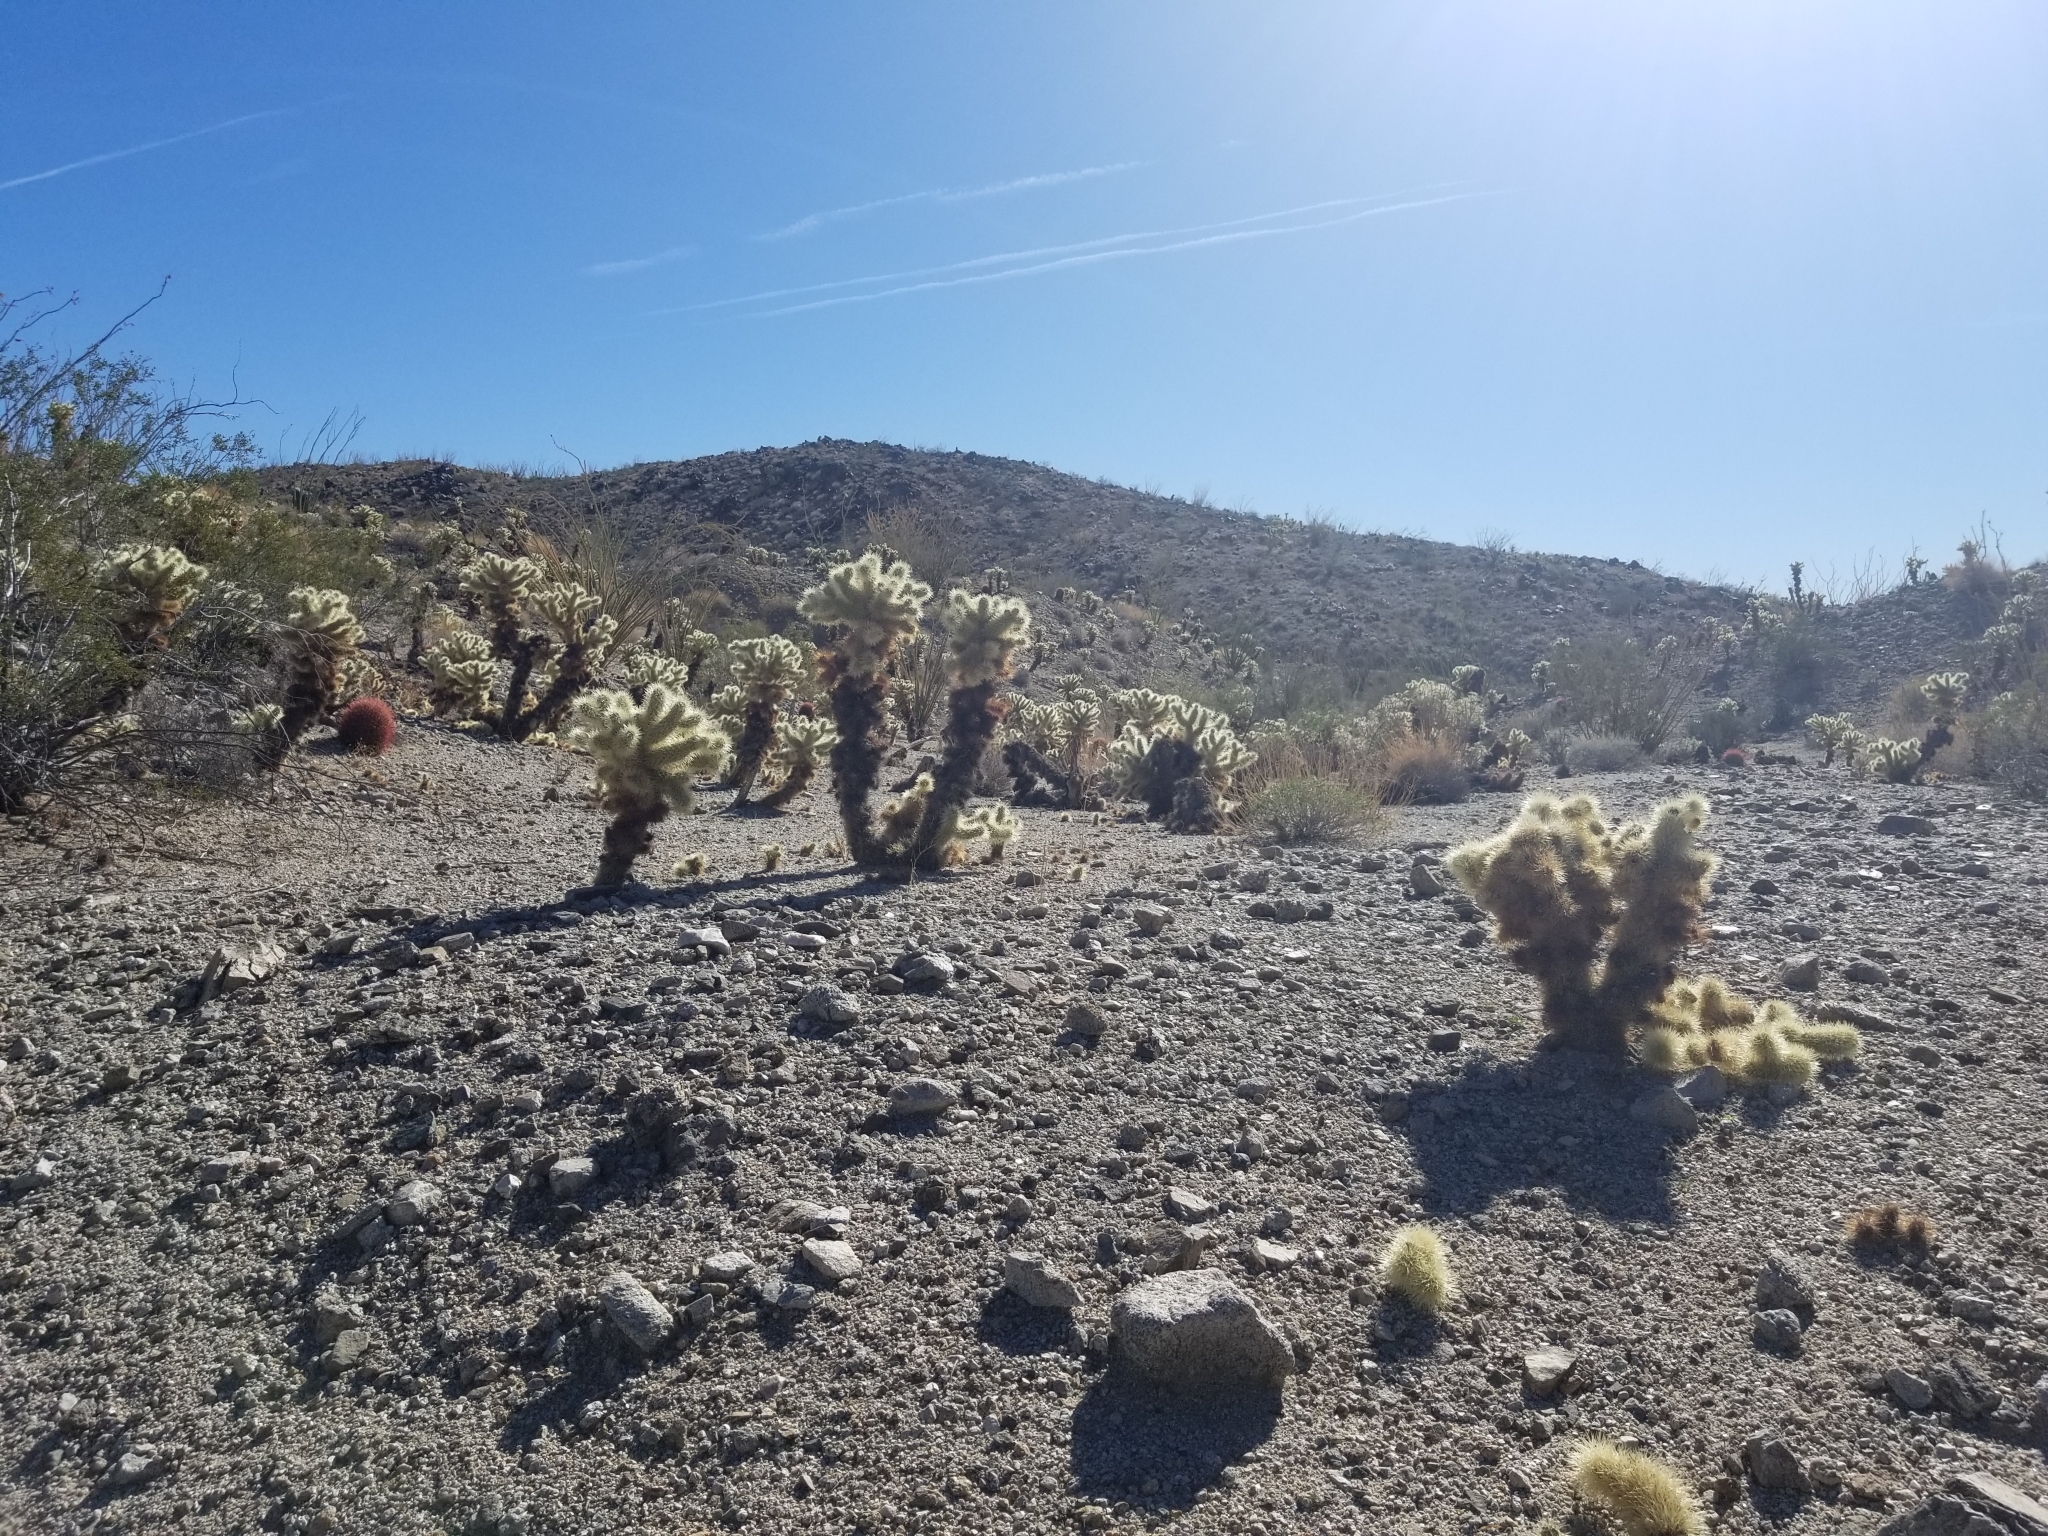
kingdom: Plantae
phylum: Tracheophyta
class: Magnoliopsida
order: Caryophyllales
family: Cactaceae
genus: Cylindropuntia
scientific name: Cylindropuntia fosbergii
